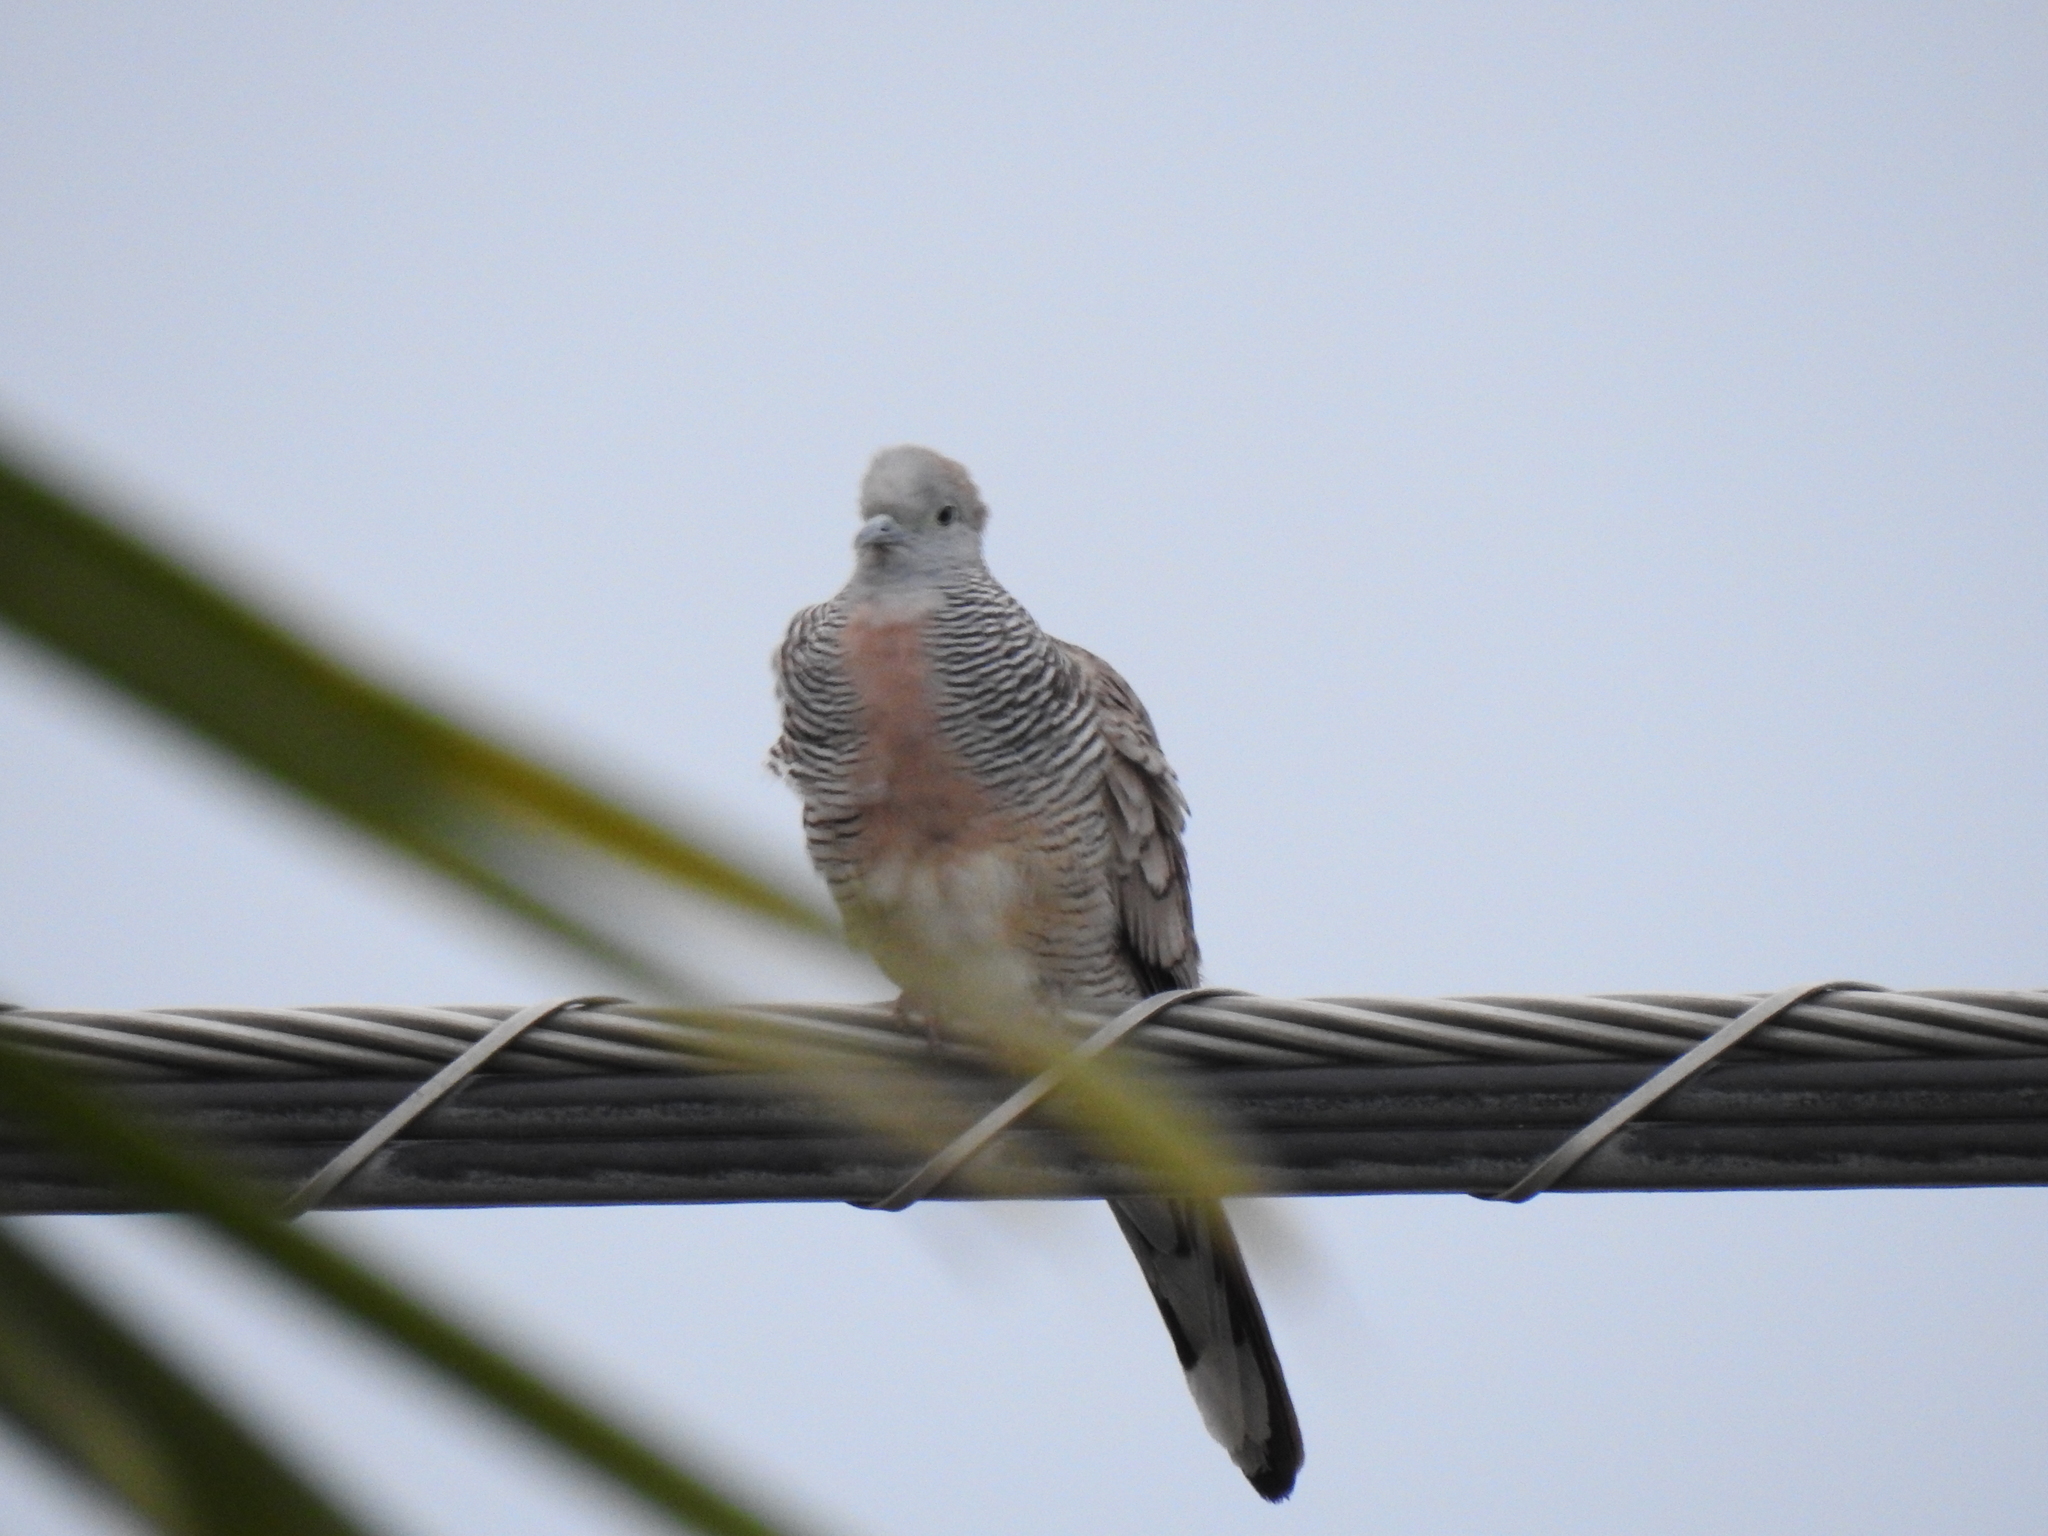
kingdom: Animalia
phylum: Chordata
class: Aves
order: Columbiformes
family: Columbidae
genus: Geopelia
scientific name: Geopelia striata
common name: Zebra dove
